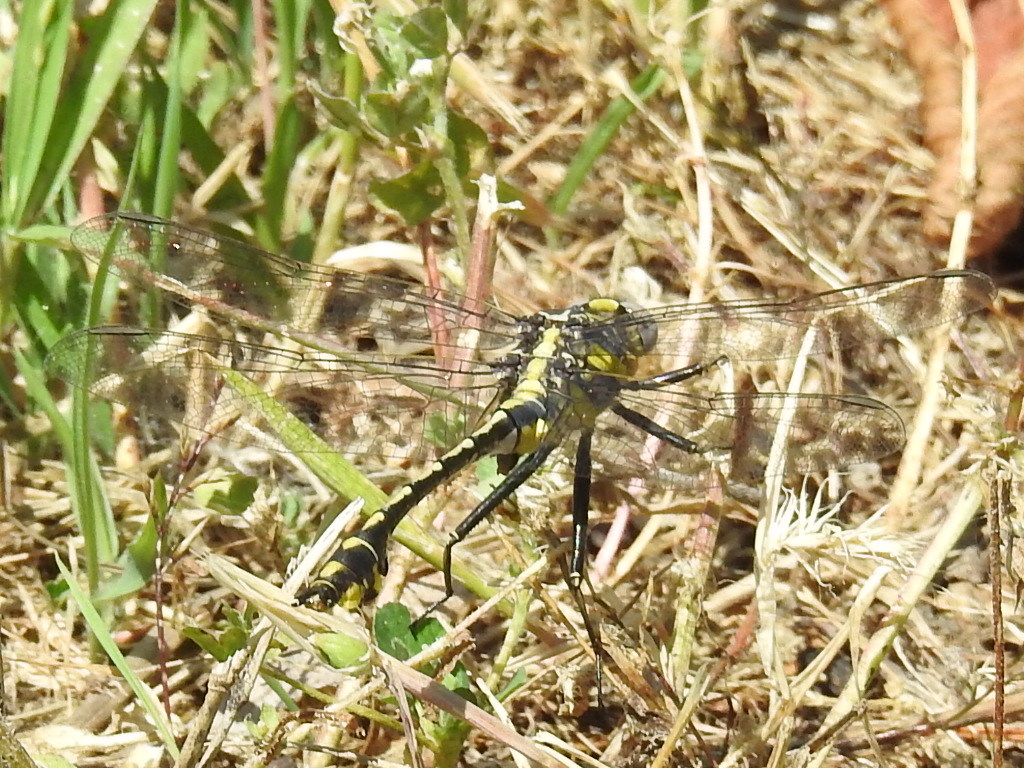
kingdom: Animalia
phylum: Arthropoda
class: Insecta
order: Odonata
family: Gomphidae
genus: Gomphurus
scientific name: Gomphurus externus
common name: Plains clubtail
